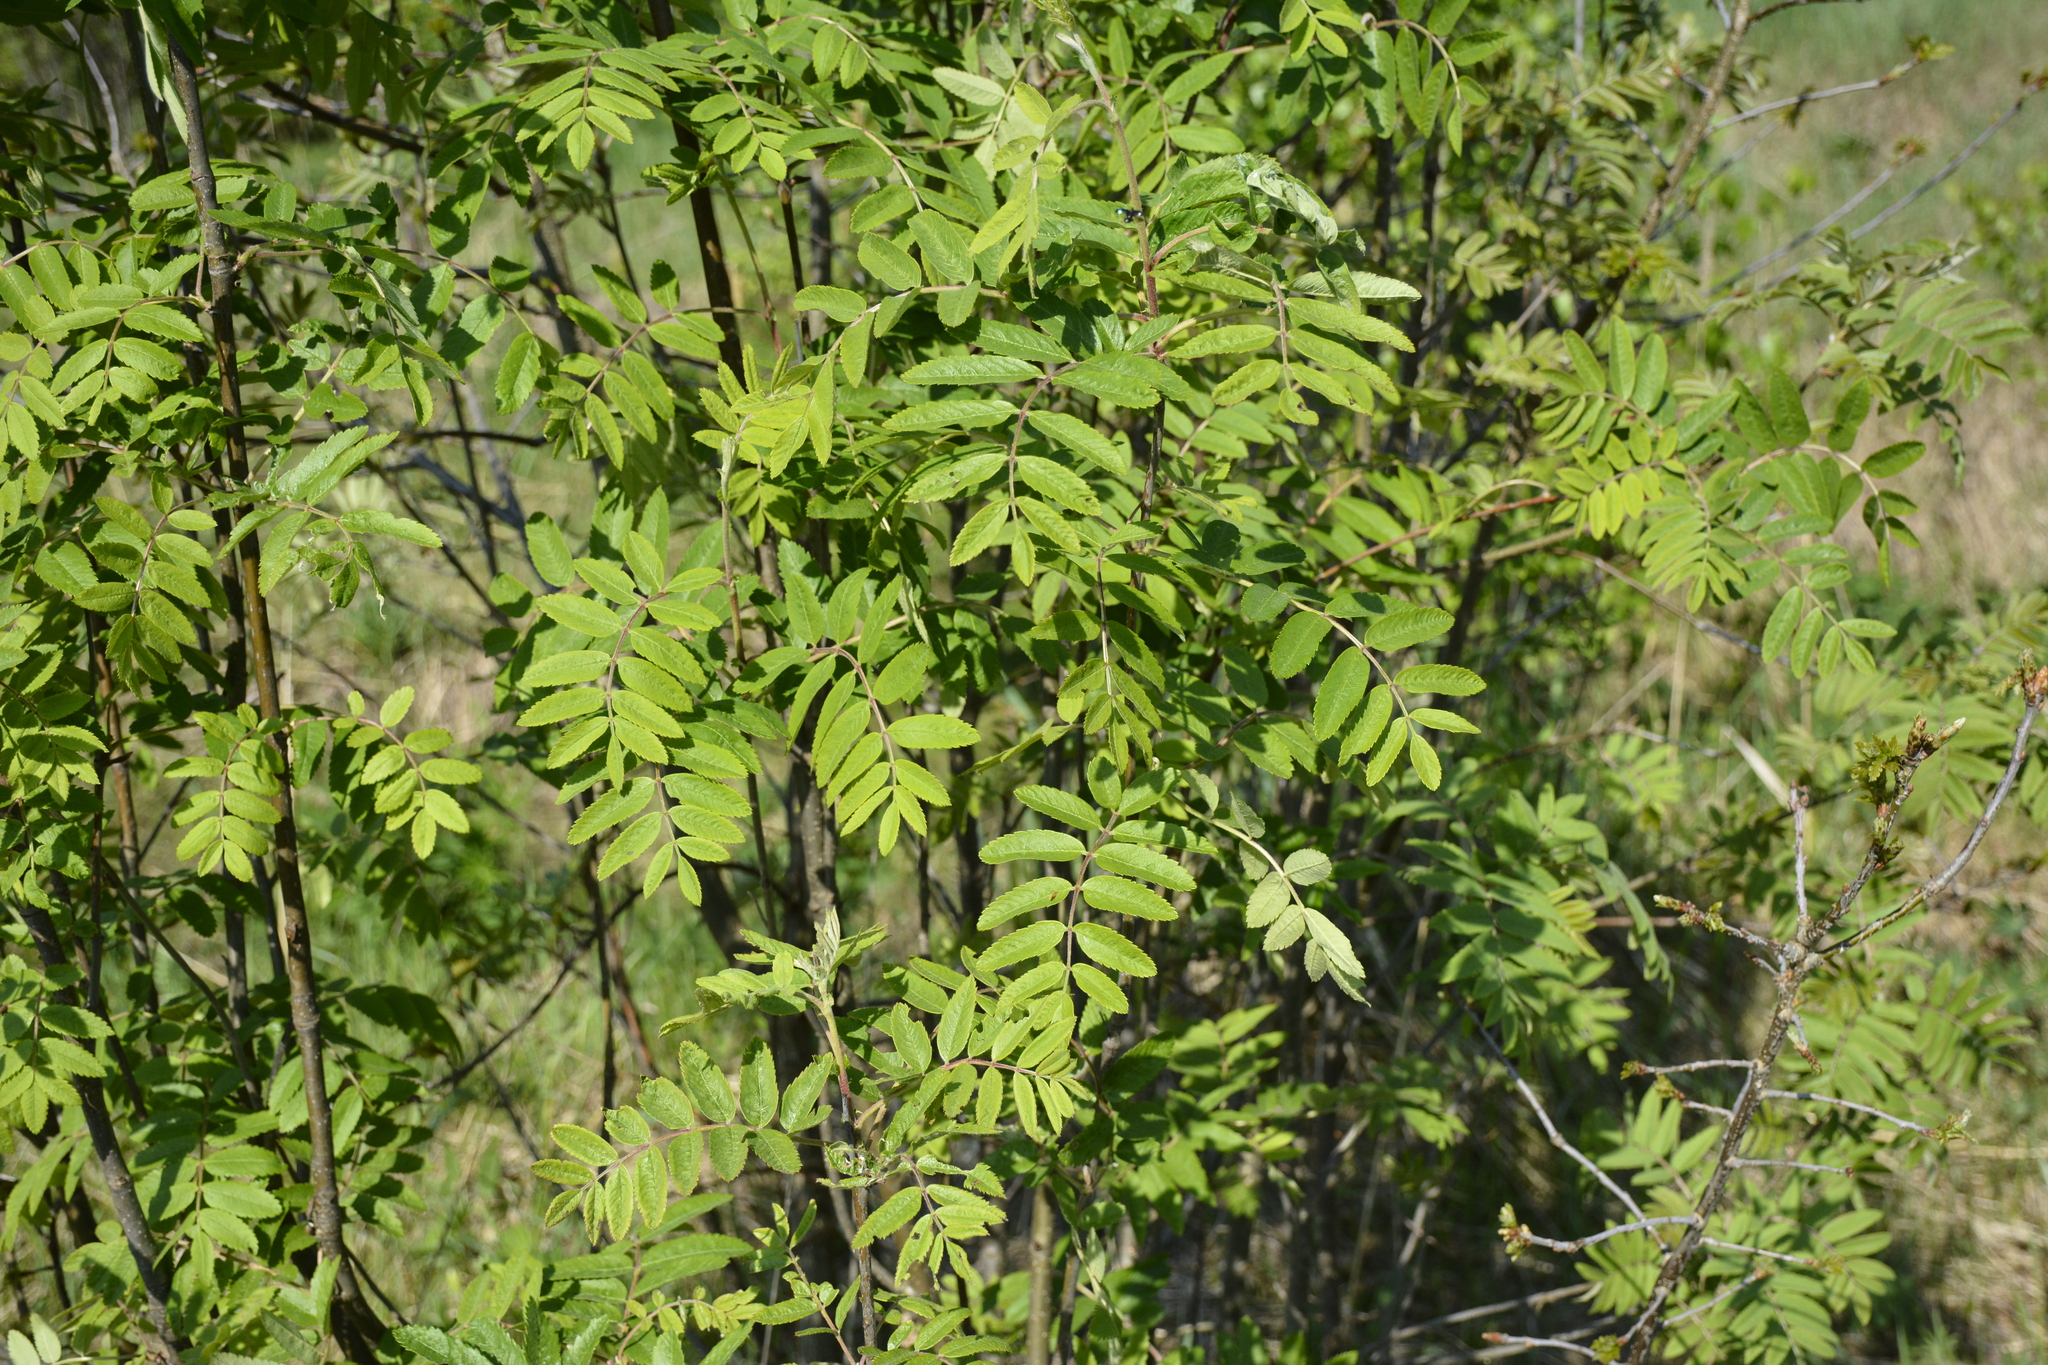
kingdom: Plantae
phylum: Tracheophyta
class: Magnoliopsida
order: Rosales
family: Rosaceae
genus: Sorbus
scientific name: Sorbus aucuparia
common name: Rowan
